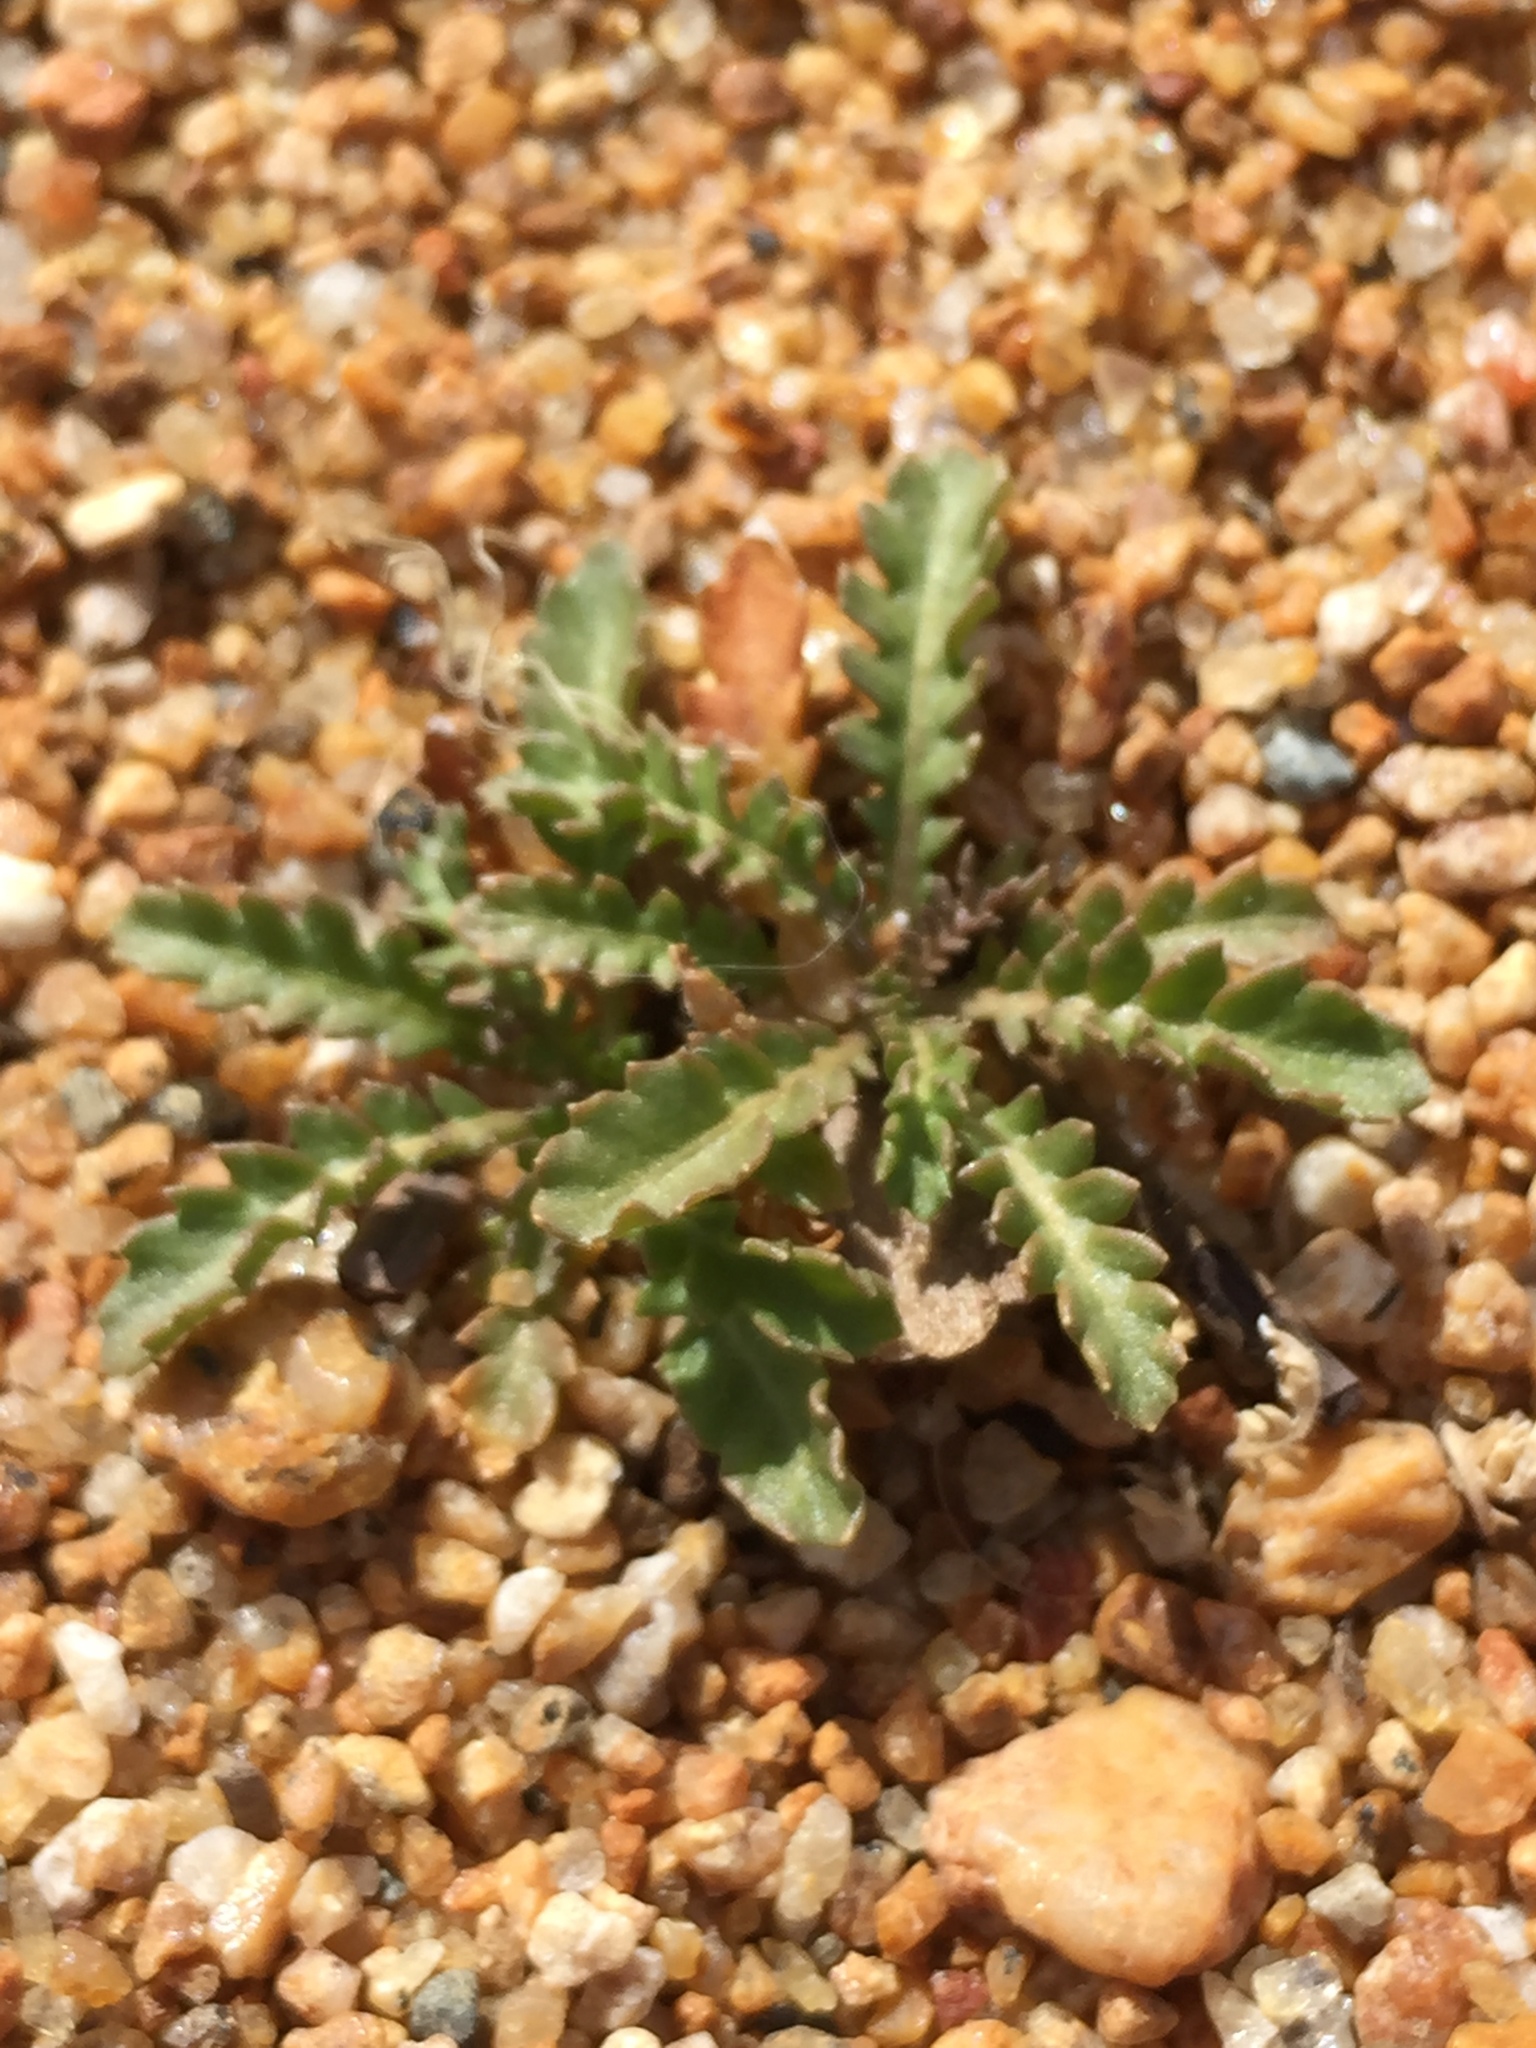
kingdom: Plantae
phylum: Tracheophyta
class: Magnoliopsida
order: Brassicales
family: Brassicaceae
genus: Rorippa
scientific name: Rorippa subumbellata
